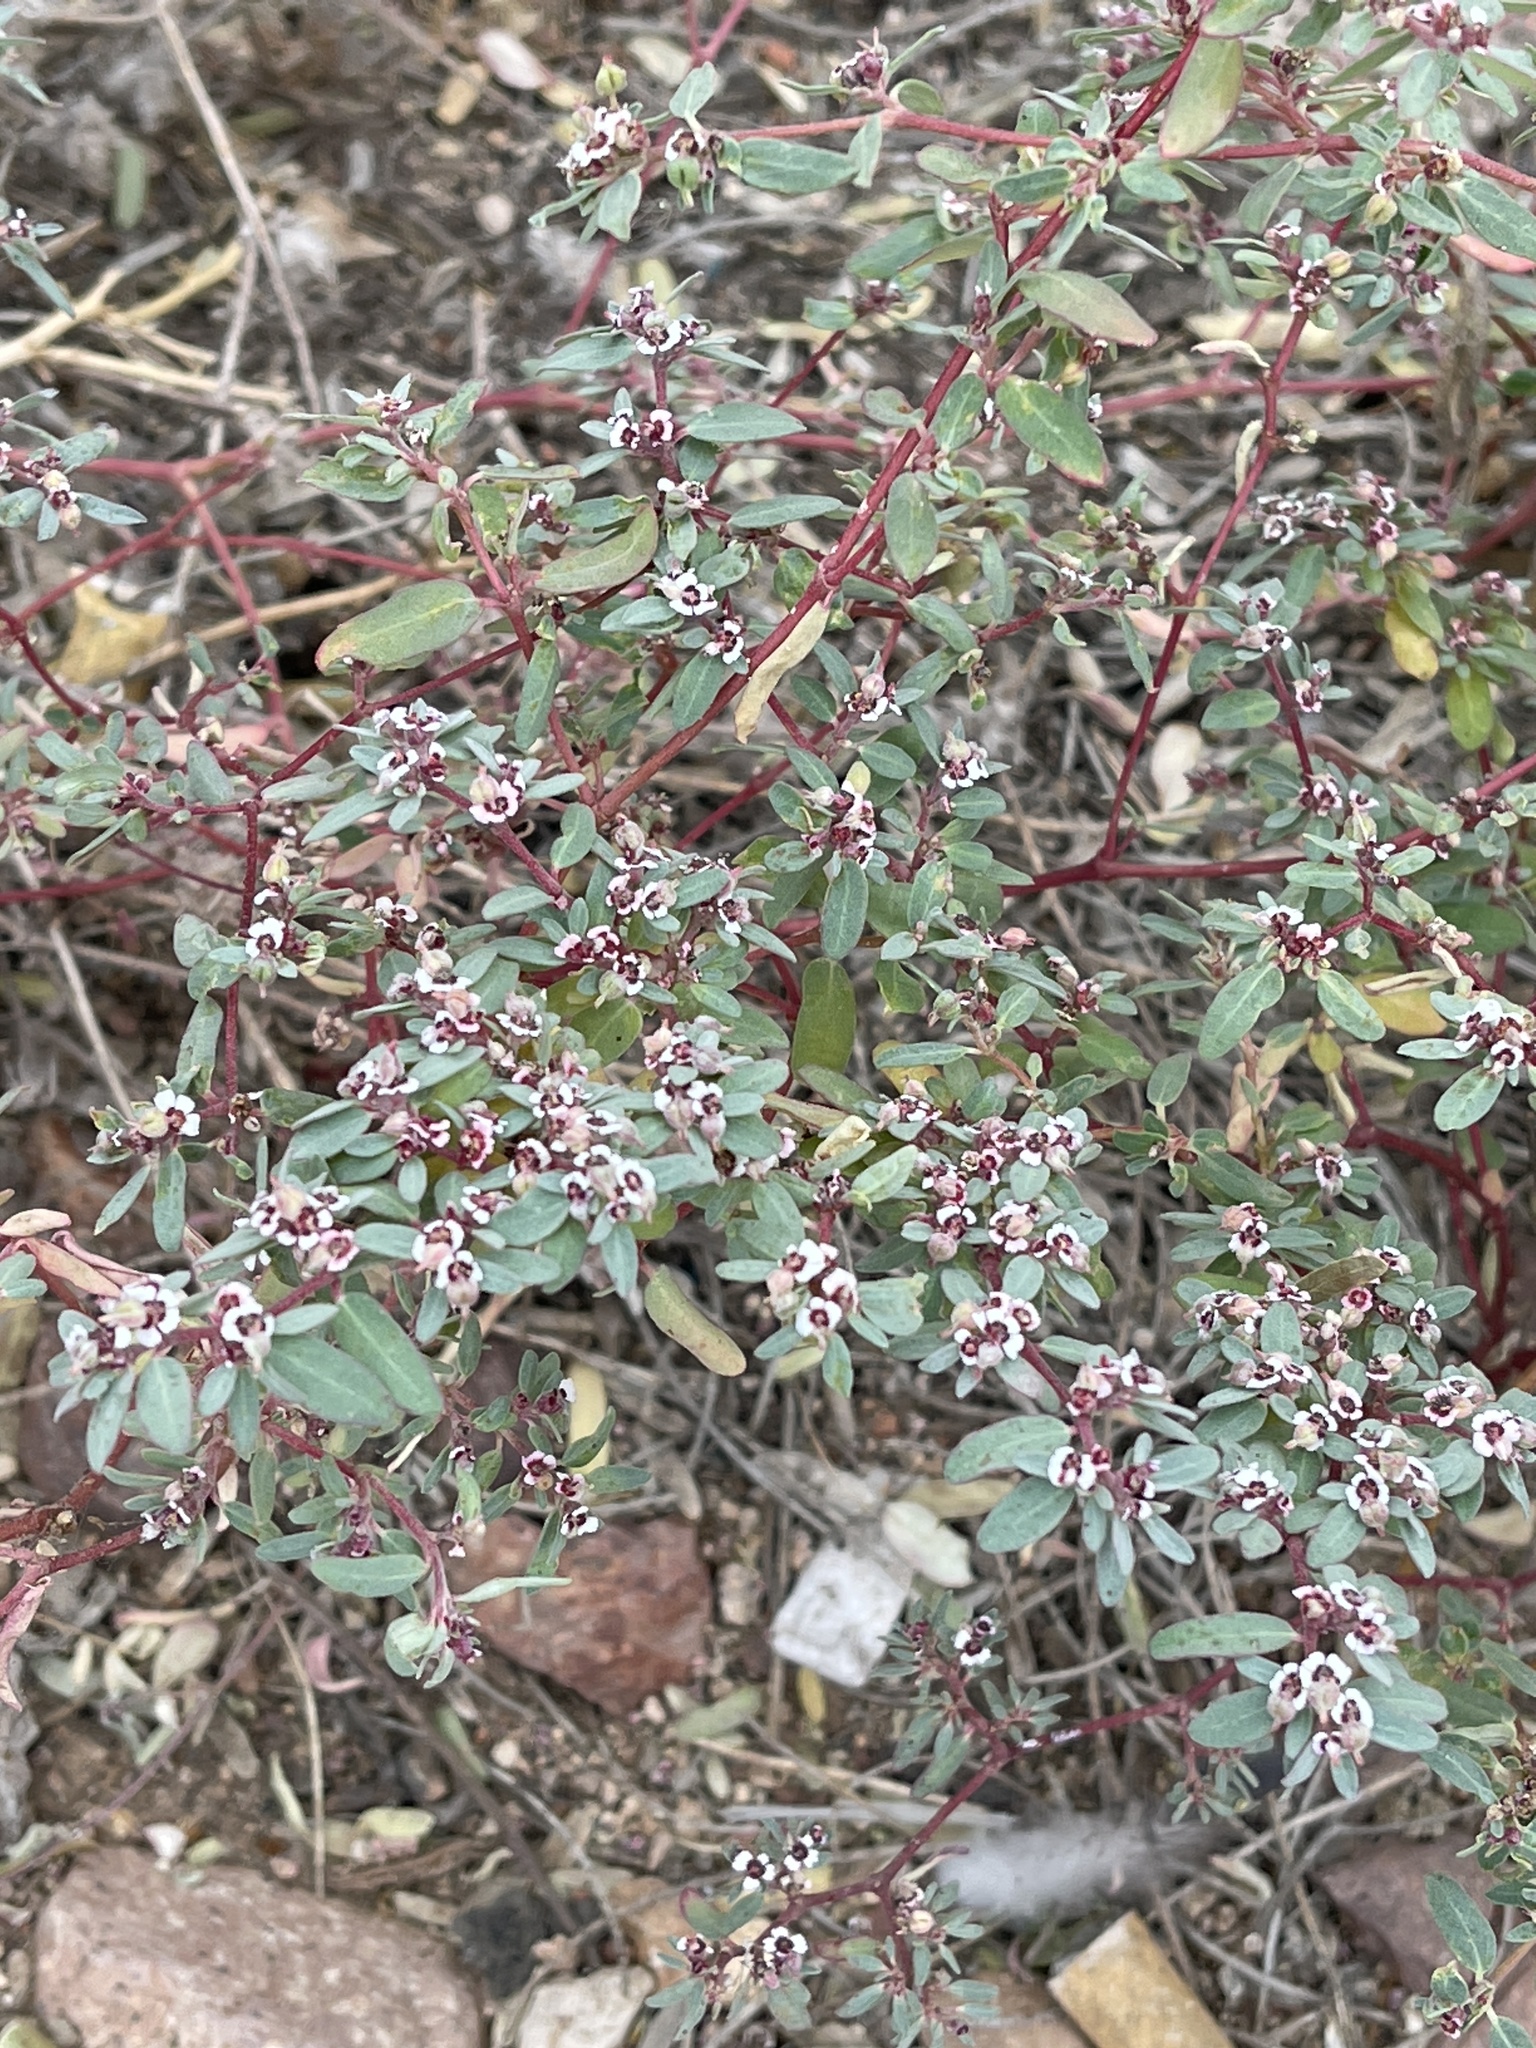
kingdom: Plantae
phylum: Tracheophyta
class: Magnoliopsida
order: Malpighiales
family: Euphorbiaceae
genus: Euphorbia
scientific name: Euphorbia pediculifera
